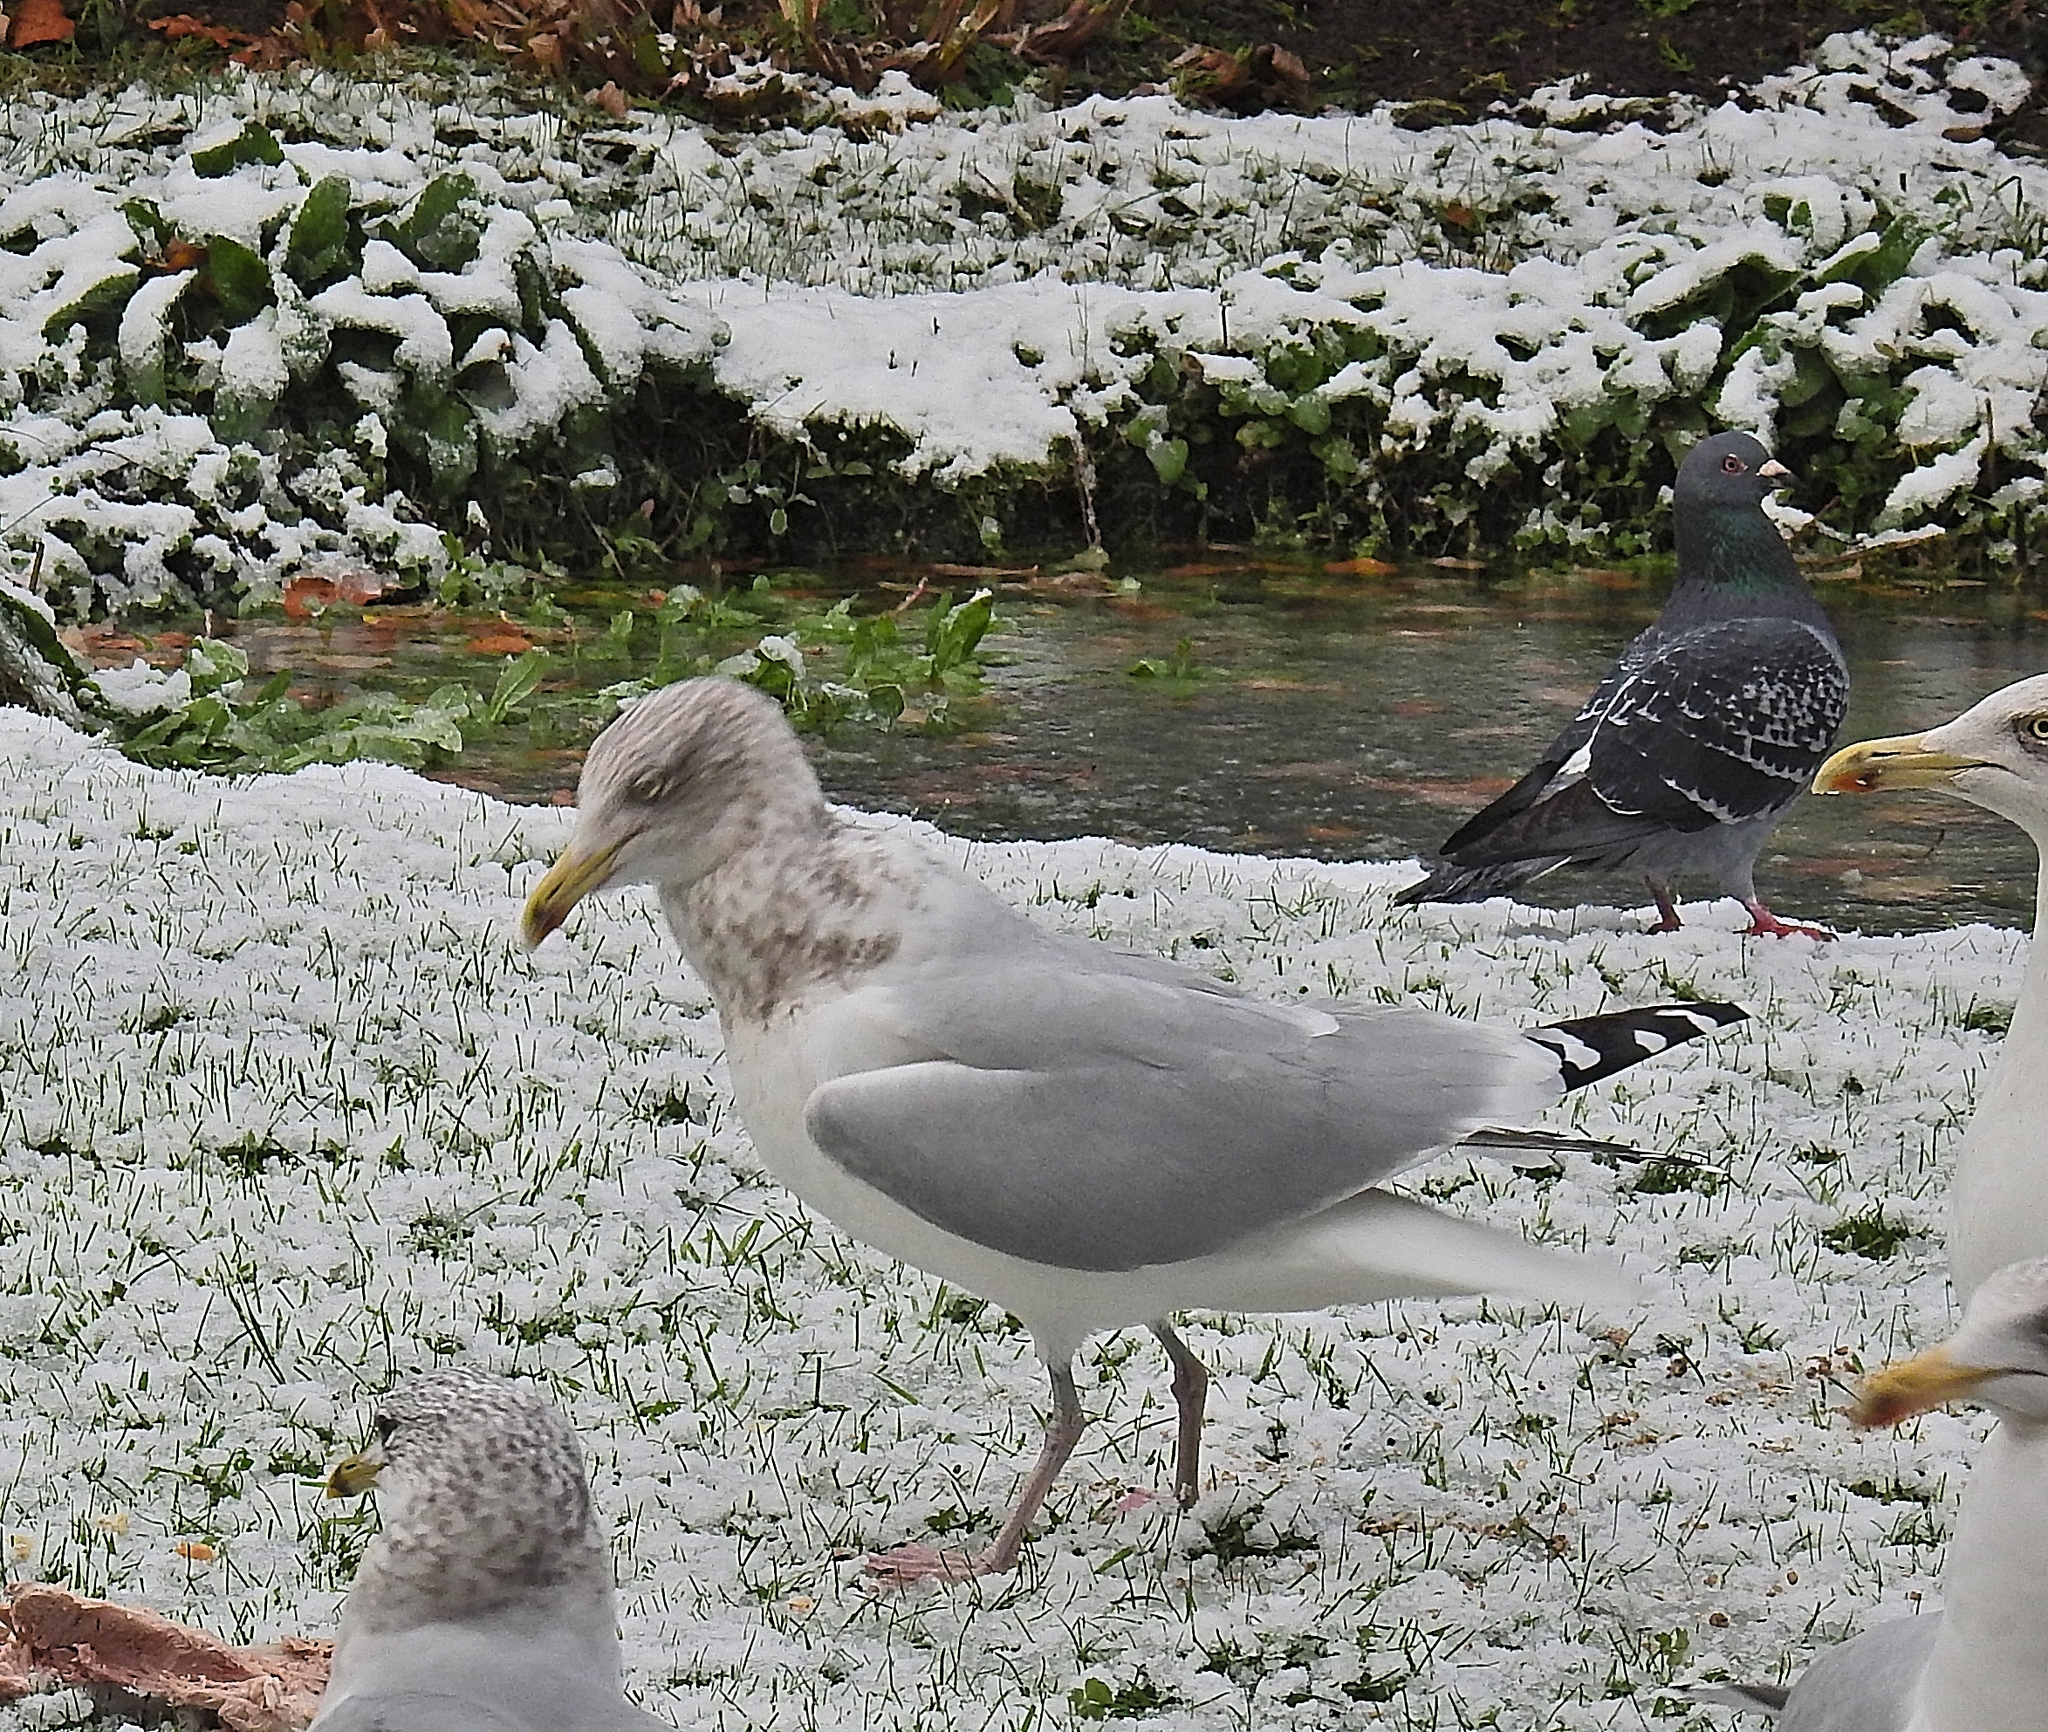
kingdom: Animalia
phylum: Chordata
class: Aves
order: Charadriiformes
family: Laridae
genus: Larus
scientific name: Larus argentatus
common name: Herring gull
